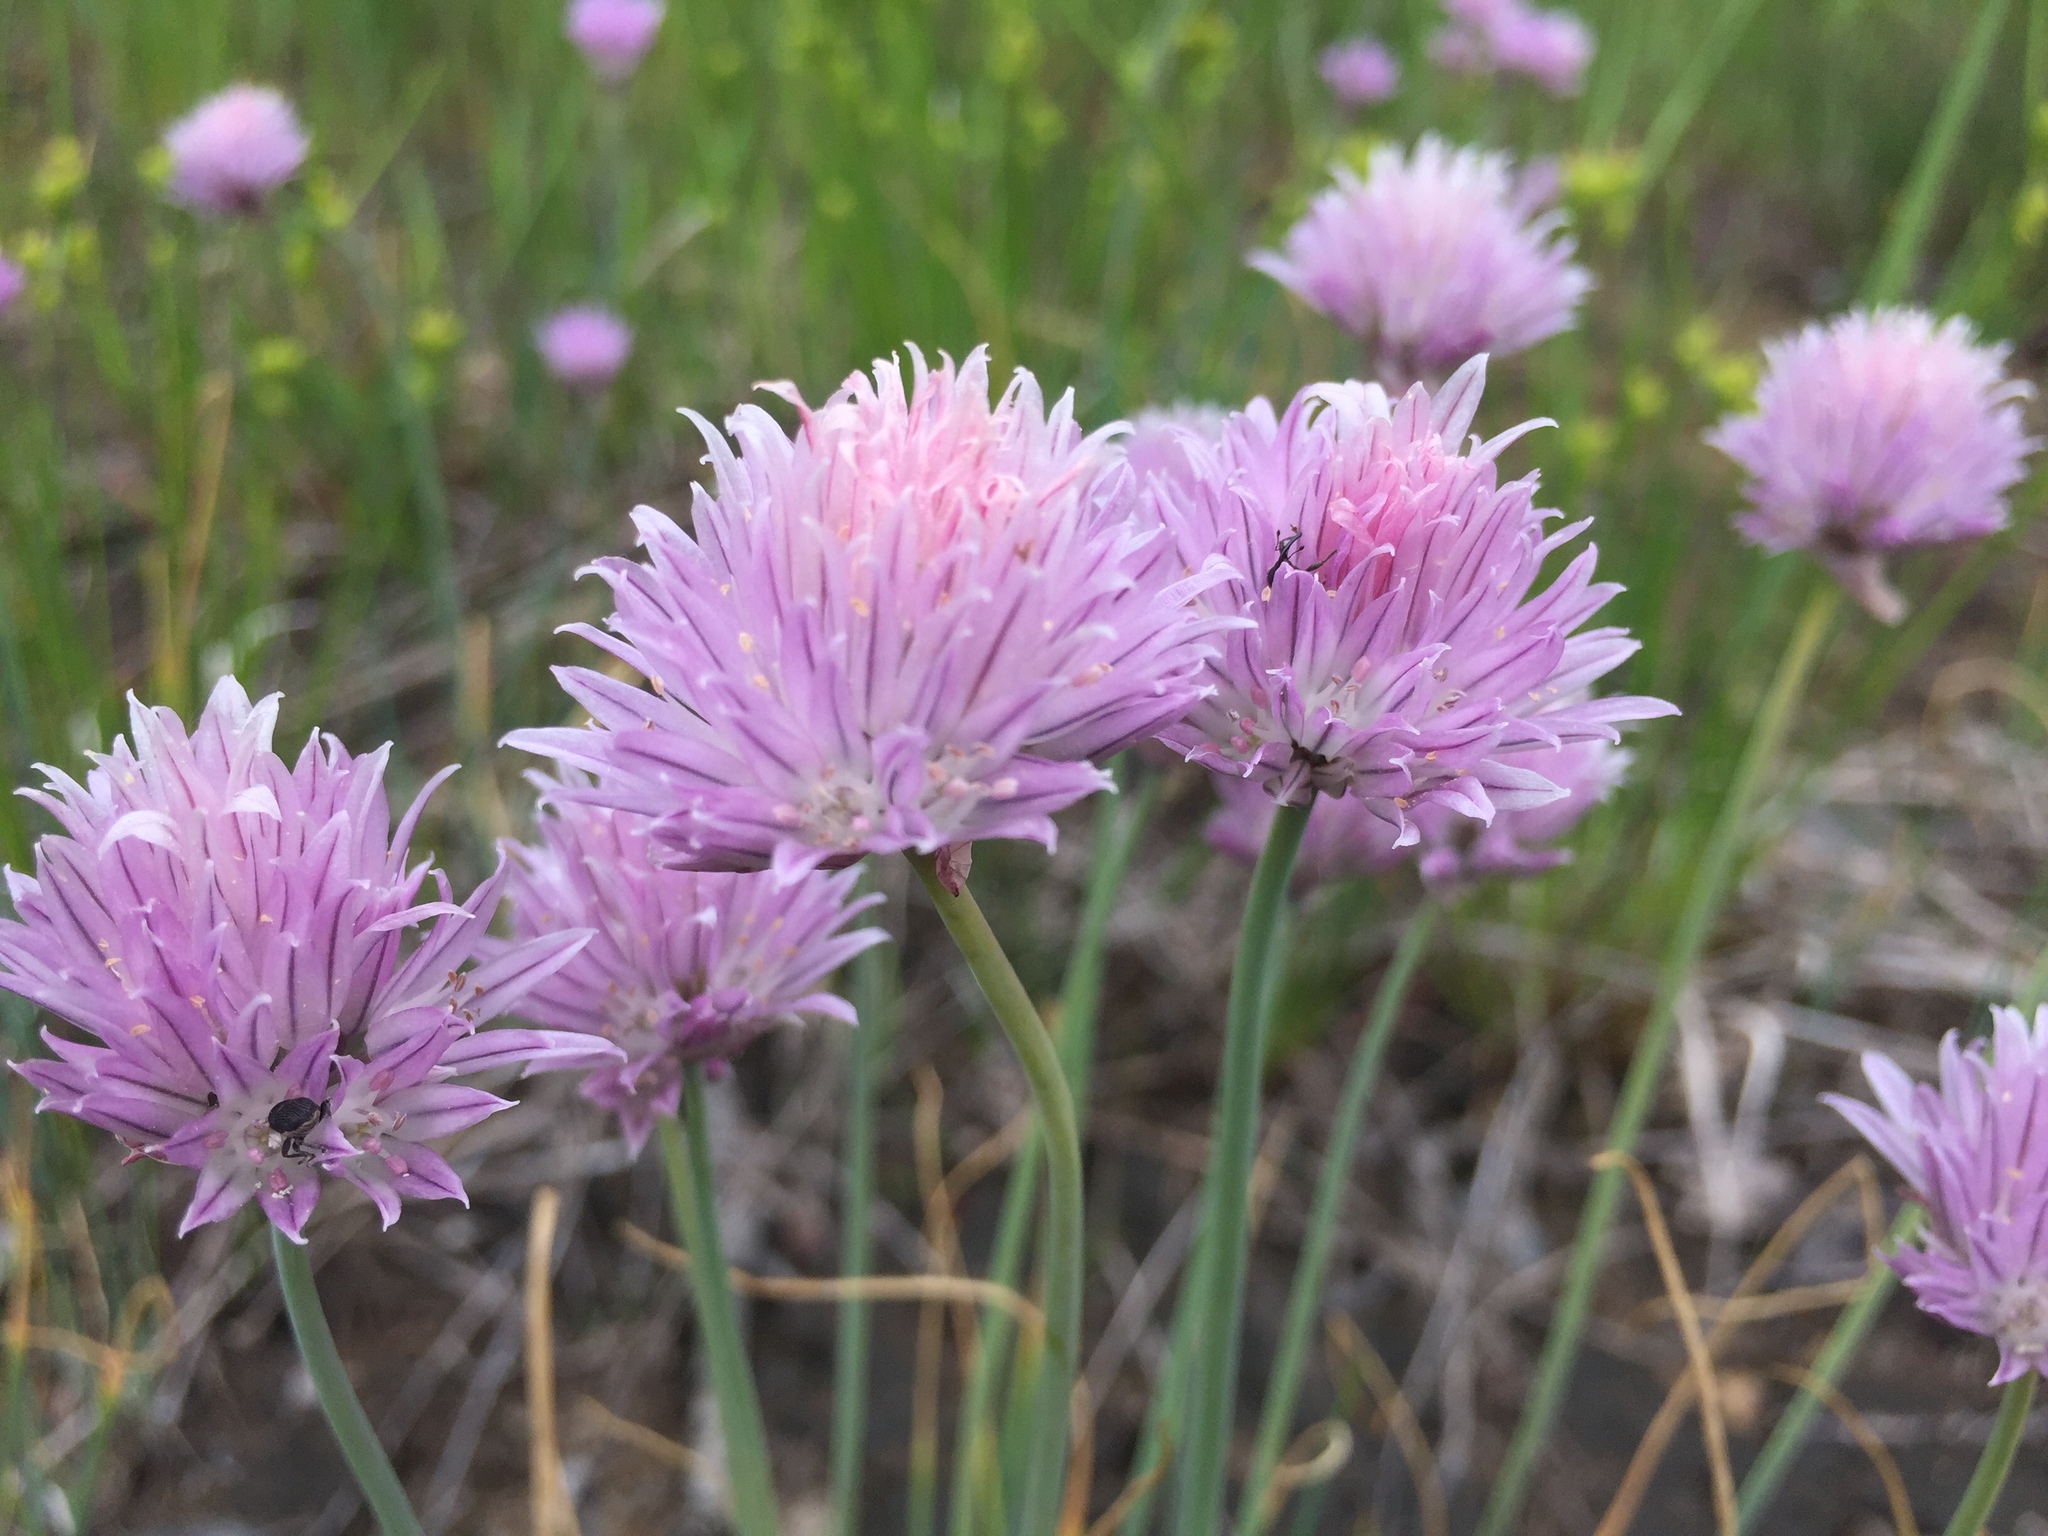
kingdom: Plantae
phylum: Tracheophyta
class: Liliopsida
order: Asparagales
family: Amaryllidaceae
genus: Allium
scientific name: Allium schoenoprasum
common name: Chives
